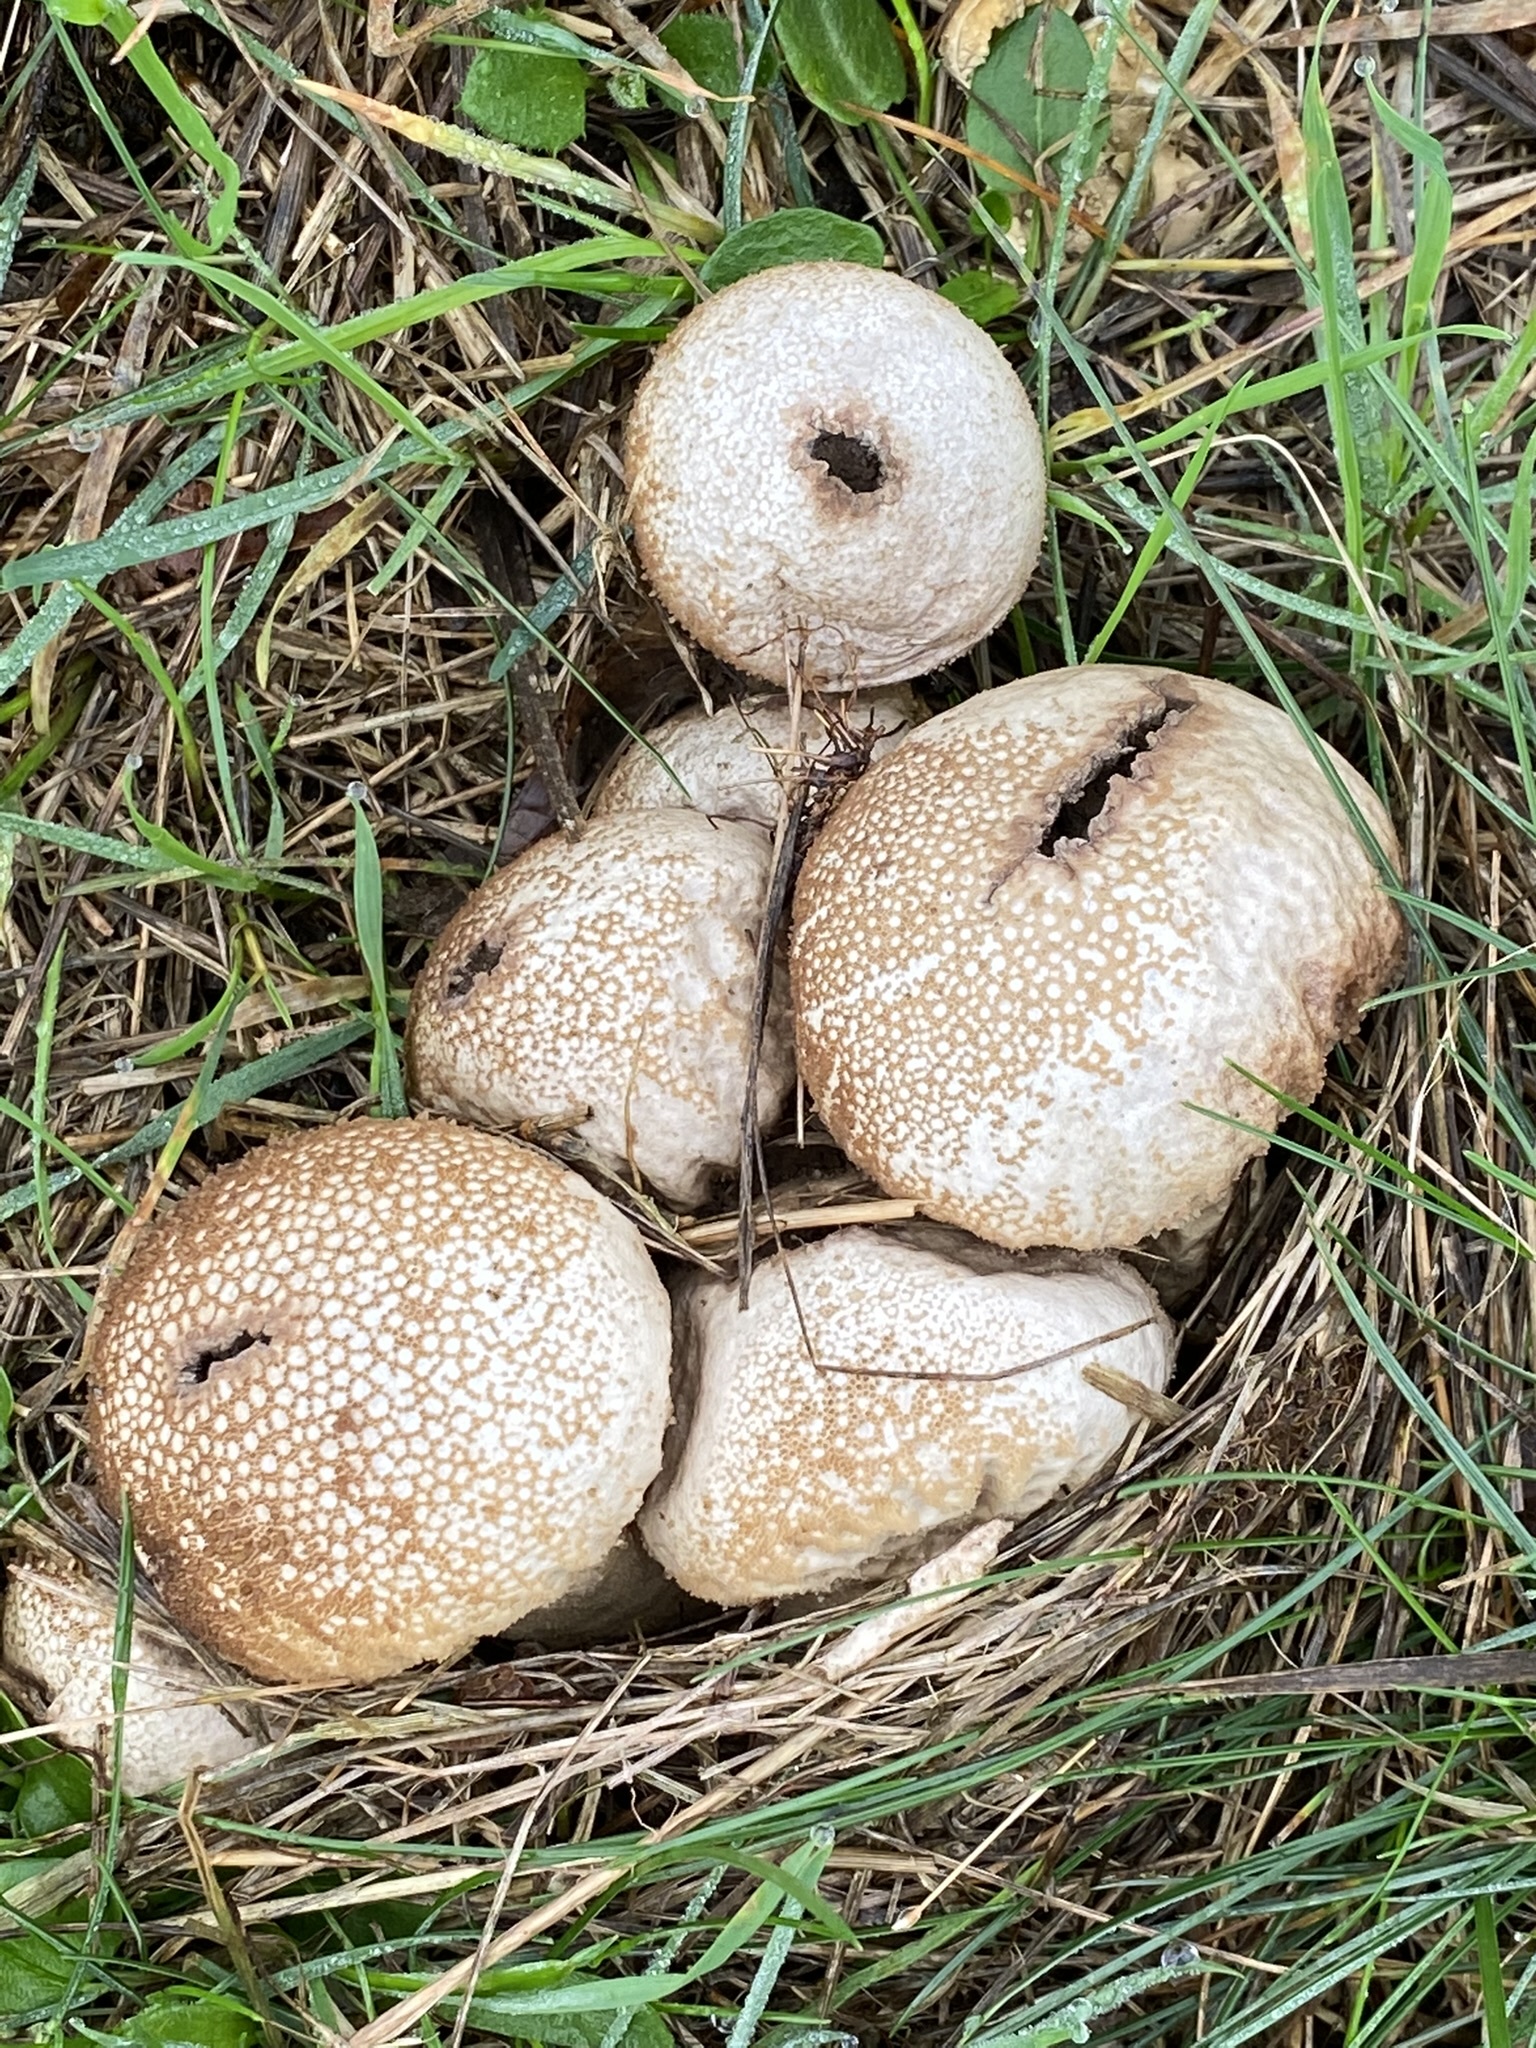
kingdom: Fungi
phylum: Basidiomycota
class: Agaricomycetes
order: Agaricales
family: Lycoperdaceae
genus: Lycoperdon
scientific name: Lycoperdon perlatum
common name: Common puffball
